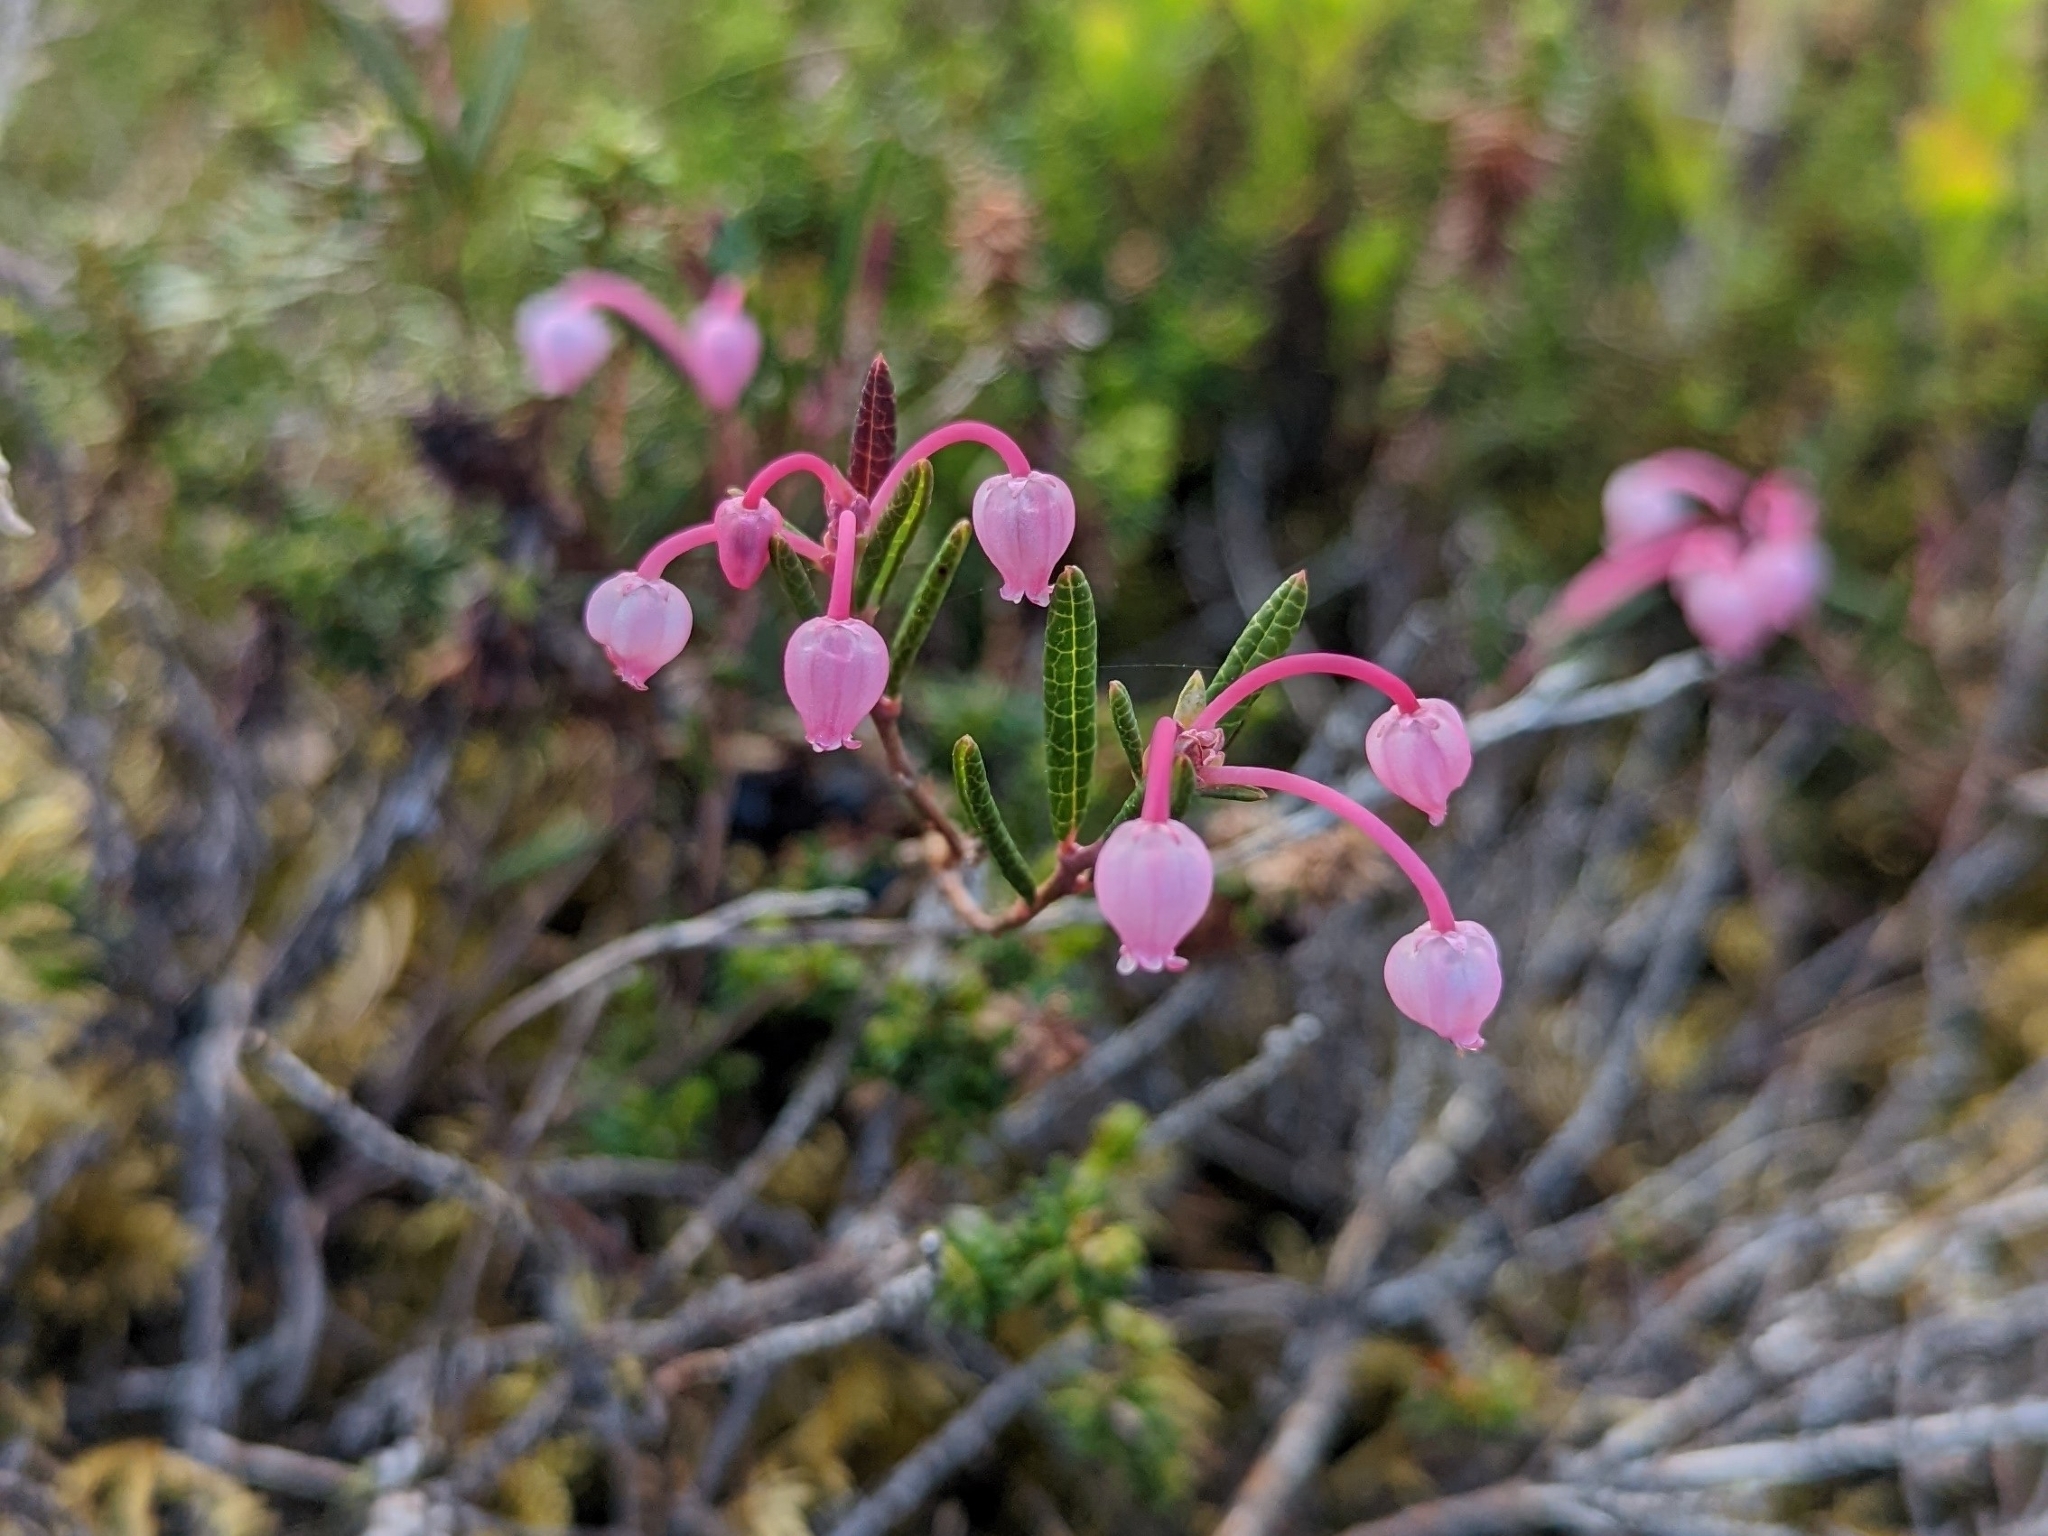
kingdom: Plantae
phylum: Tracheophyta
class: Magnoliopsida
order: Ericales
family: Ericaceae
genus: Andromeda
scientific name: Andromeda polifolia
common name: Bog-rosemary
